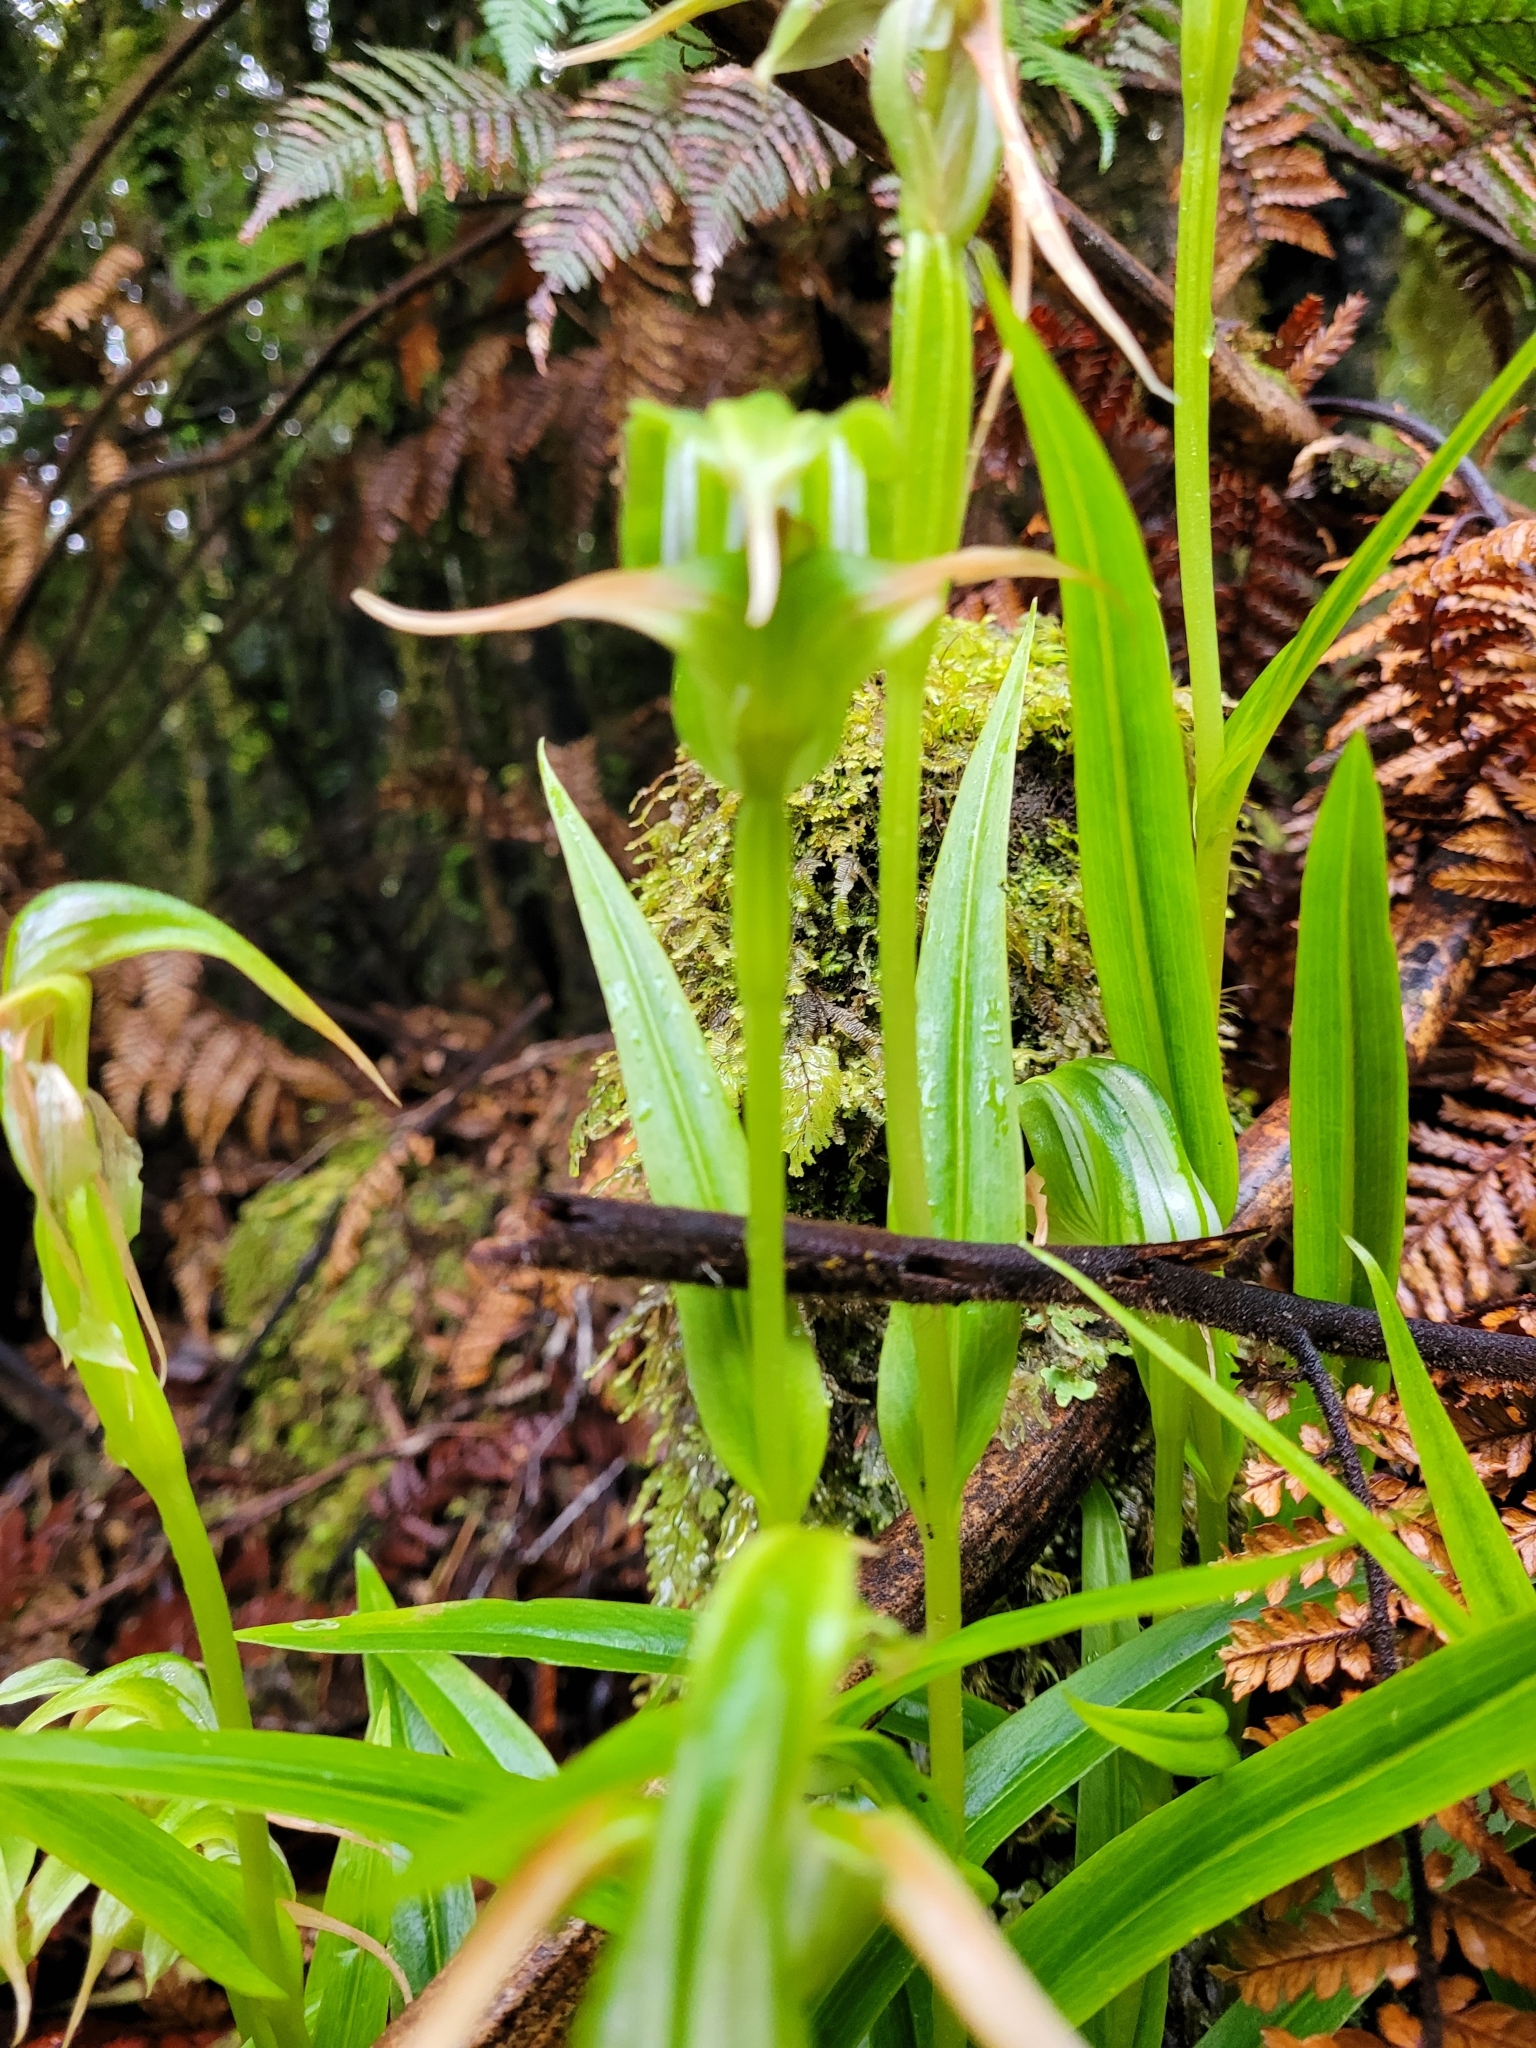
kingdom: Plantae
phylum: Tracheophyta
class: Liliopsida
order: Asparagales
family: Orchidaceae
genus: Pterostylis
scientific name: Pterostylis australis
